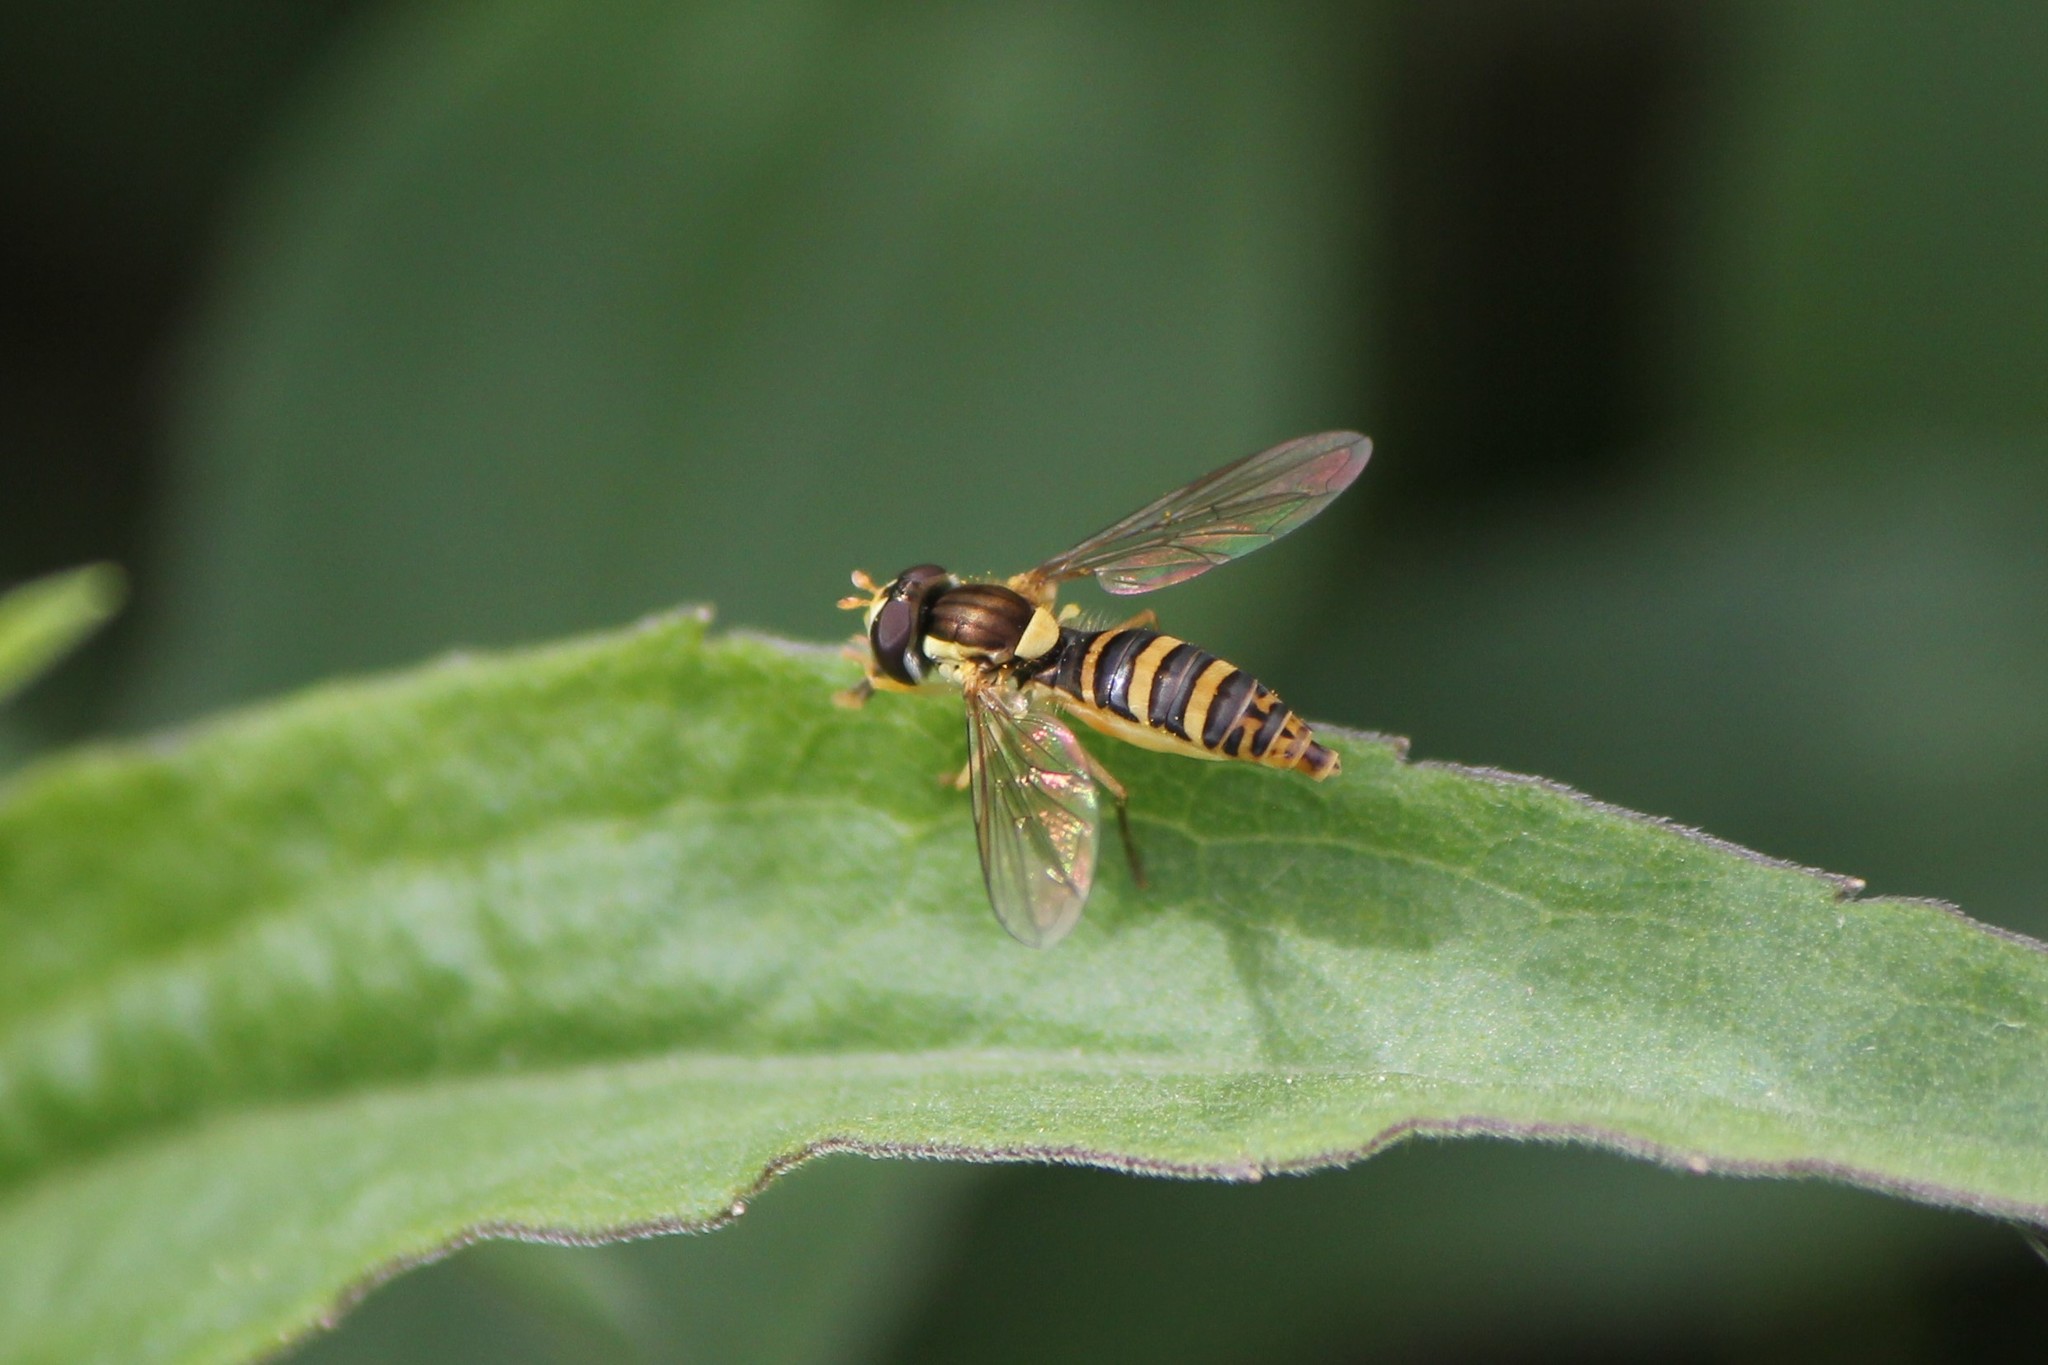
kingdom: Animalia
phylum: Arthropoda
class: Insecta
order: Diptera
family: Syrphidae
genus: Sphaerophoria
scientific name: Sphaerophoria
